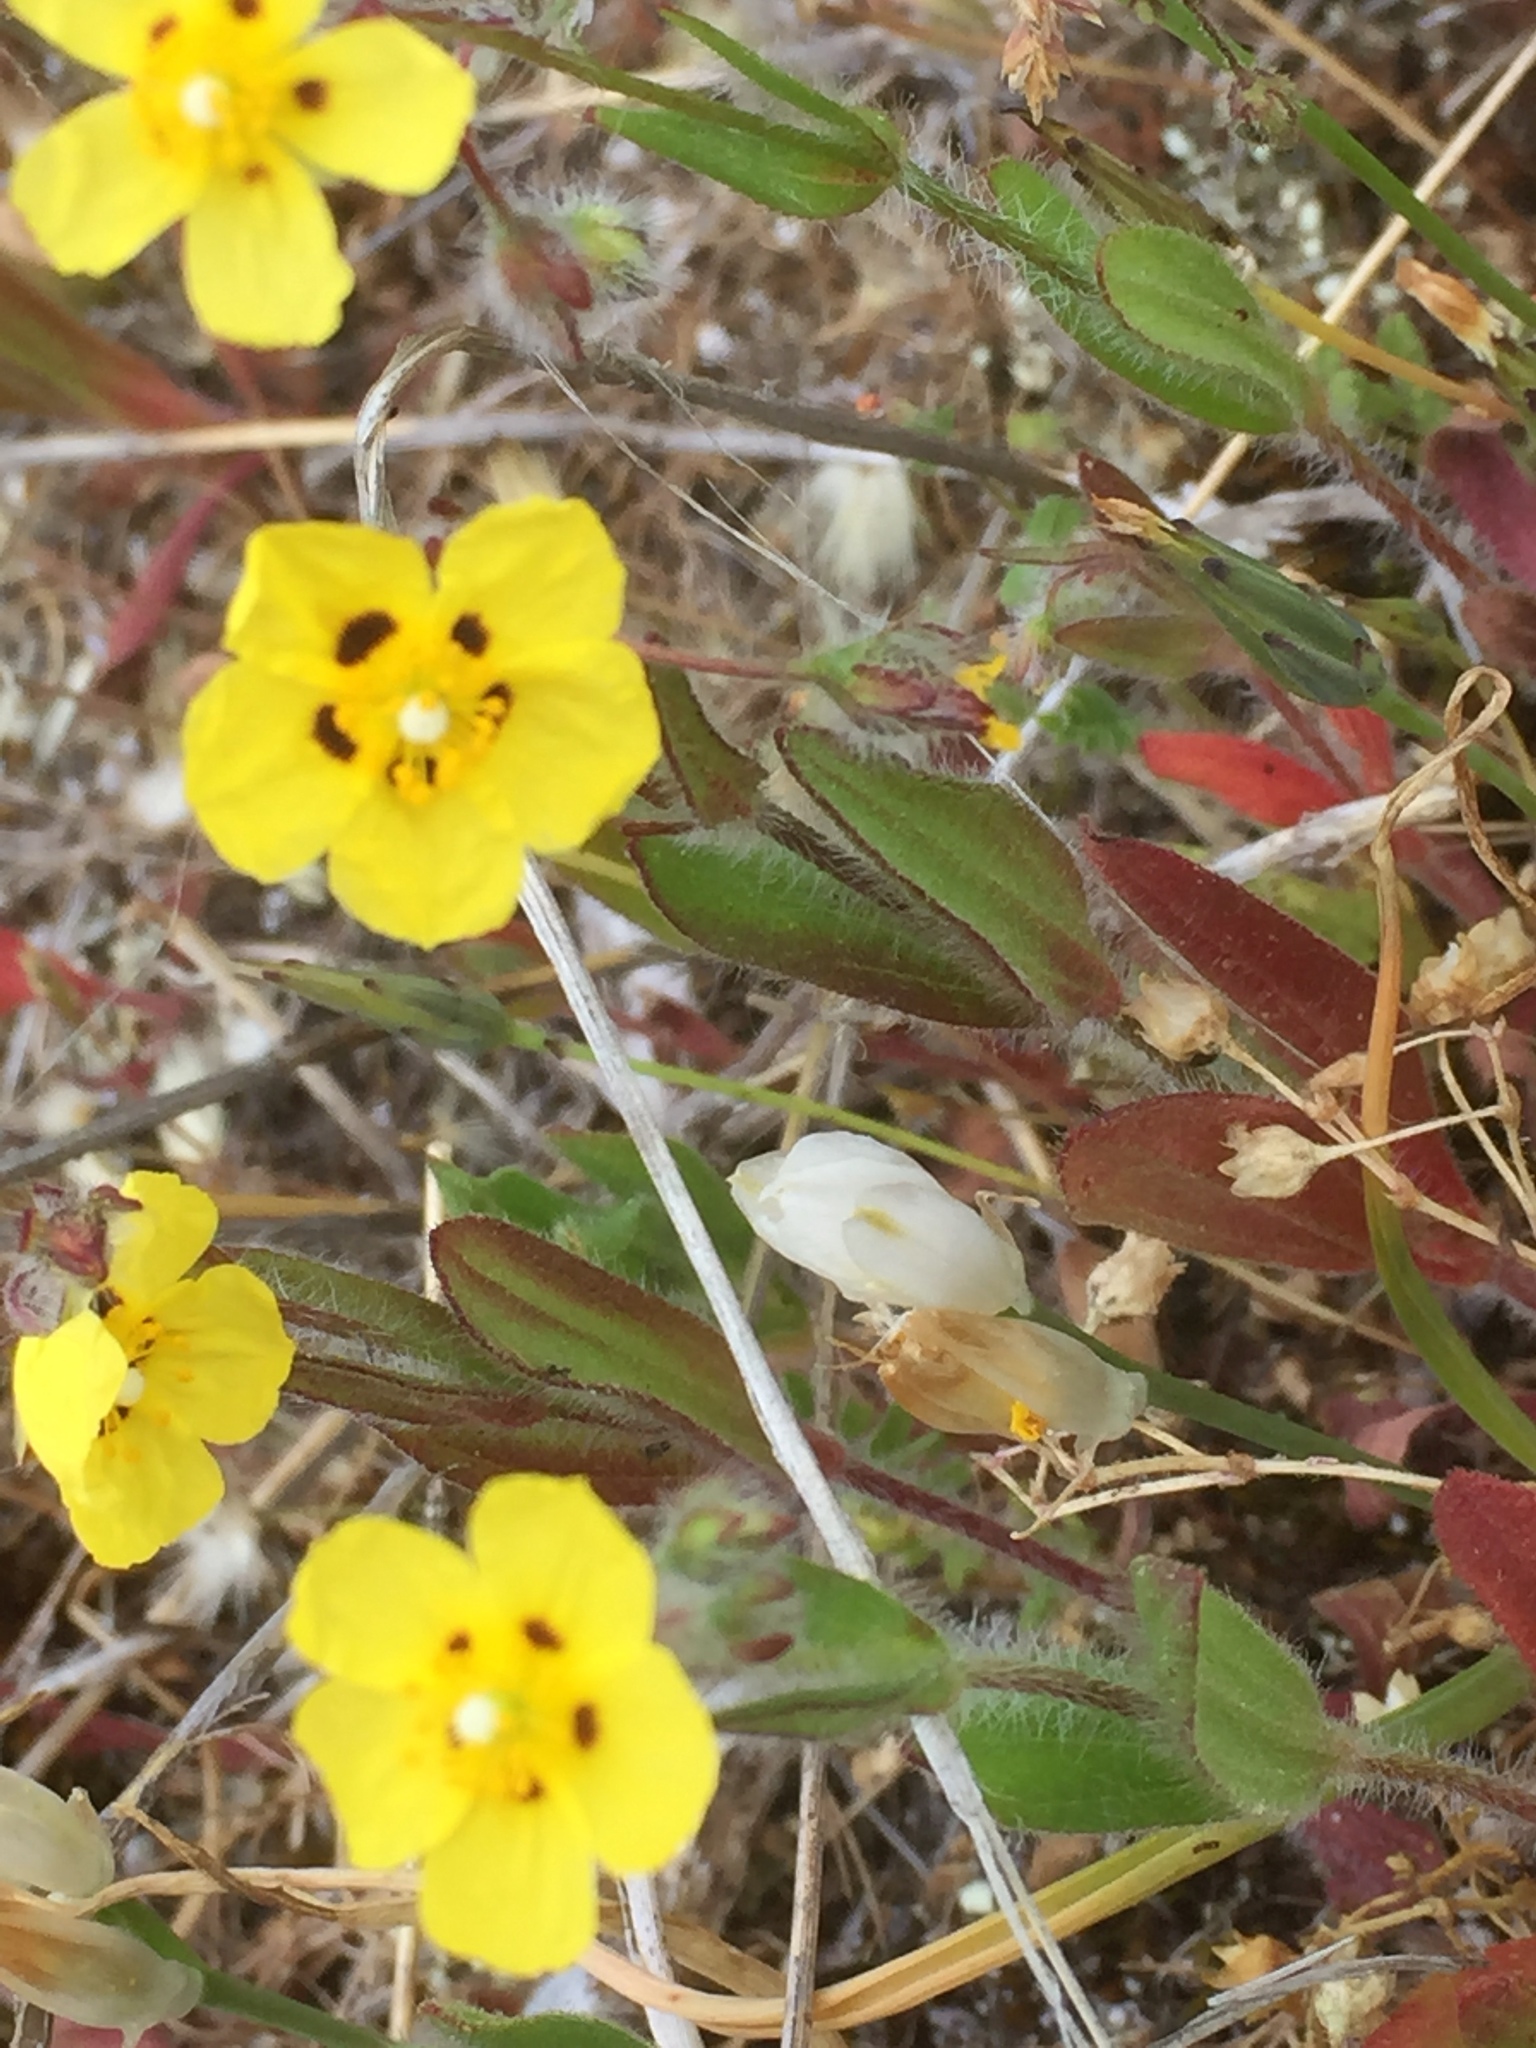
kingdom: Plantae
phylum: Tracheophyta
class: Magnoliopsida
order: Malvales
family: Cistaceae
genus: Tuberaria
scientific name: Tuberaria guttata
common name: Spotted rock-rose
